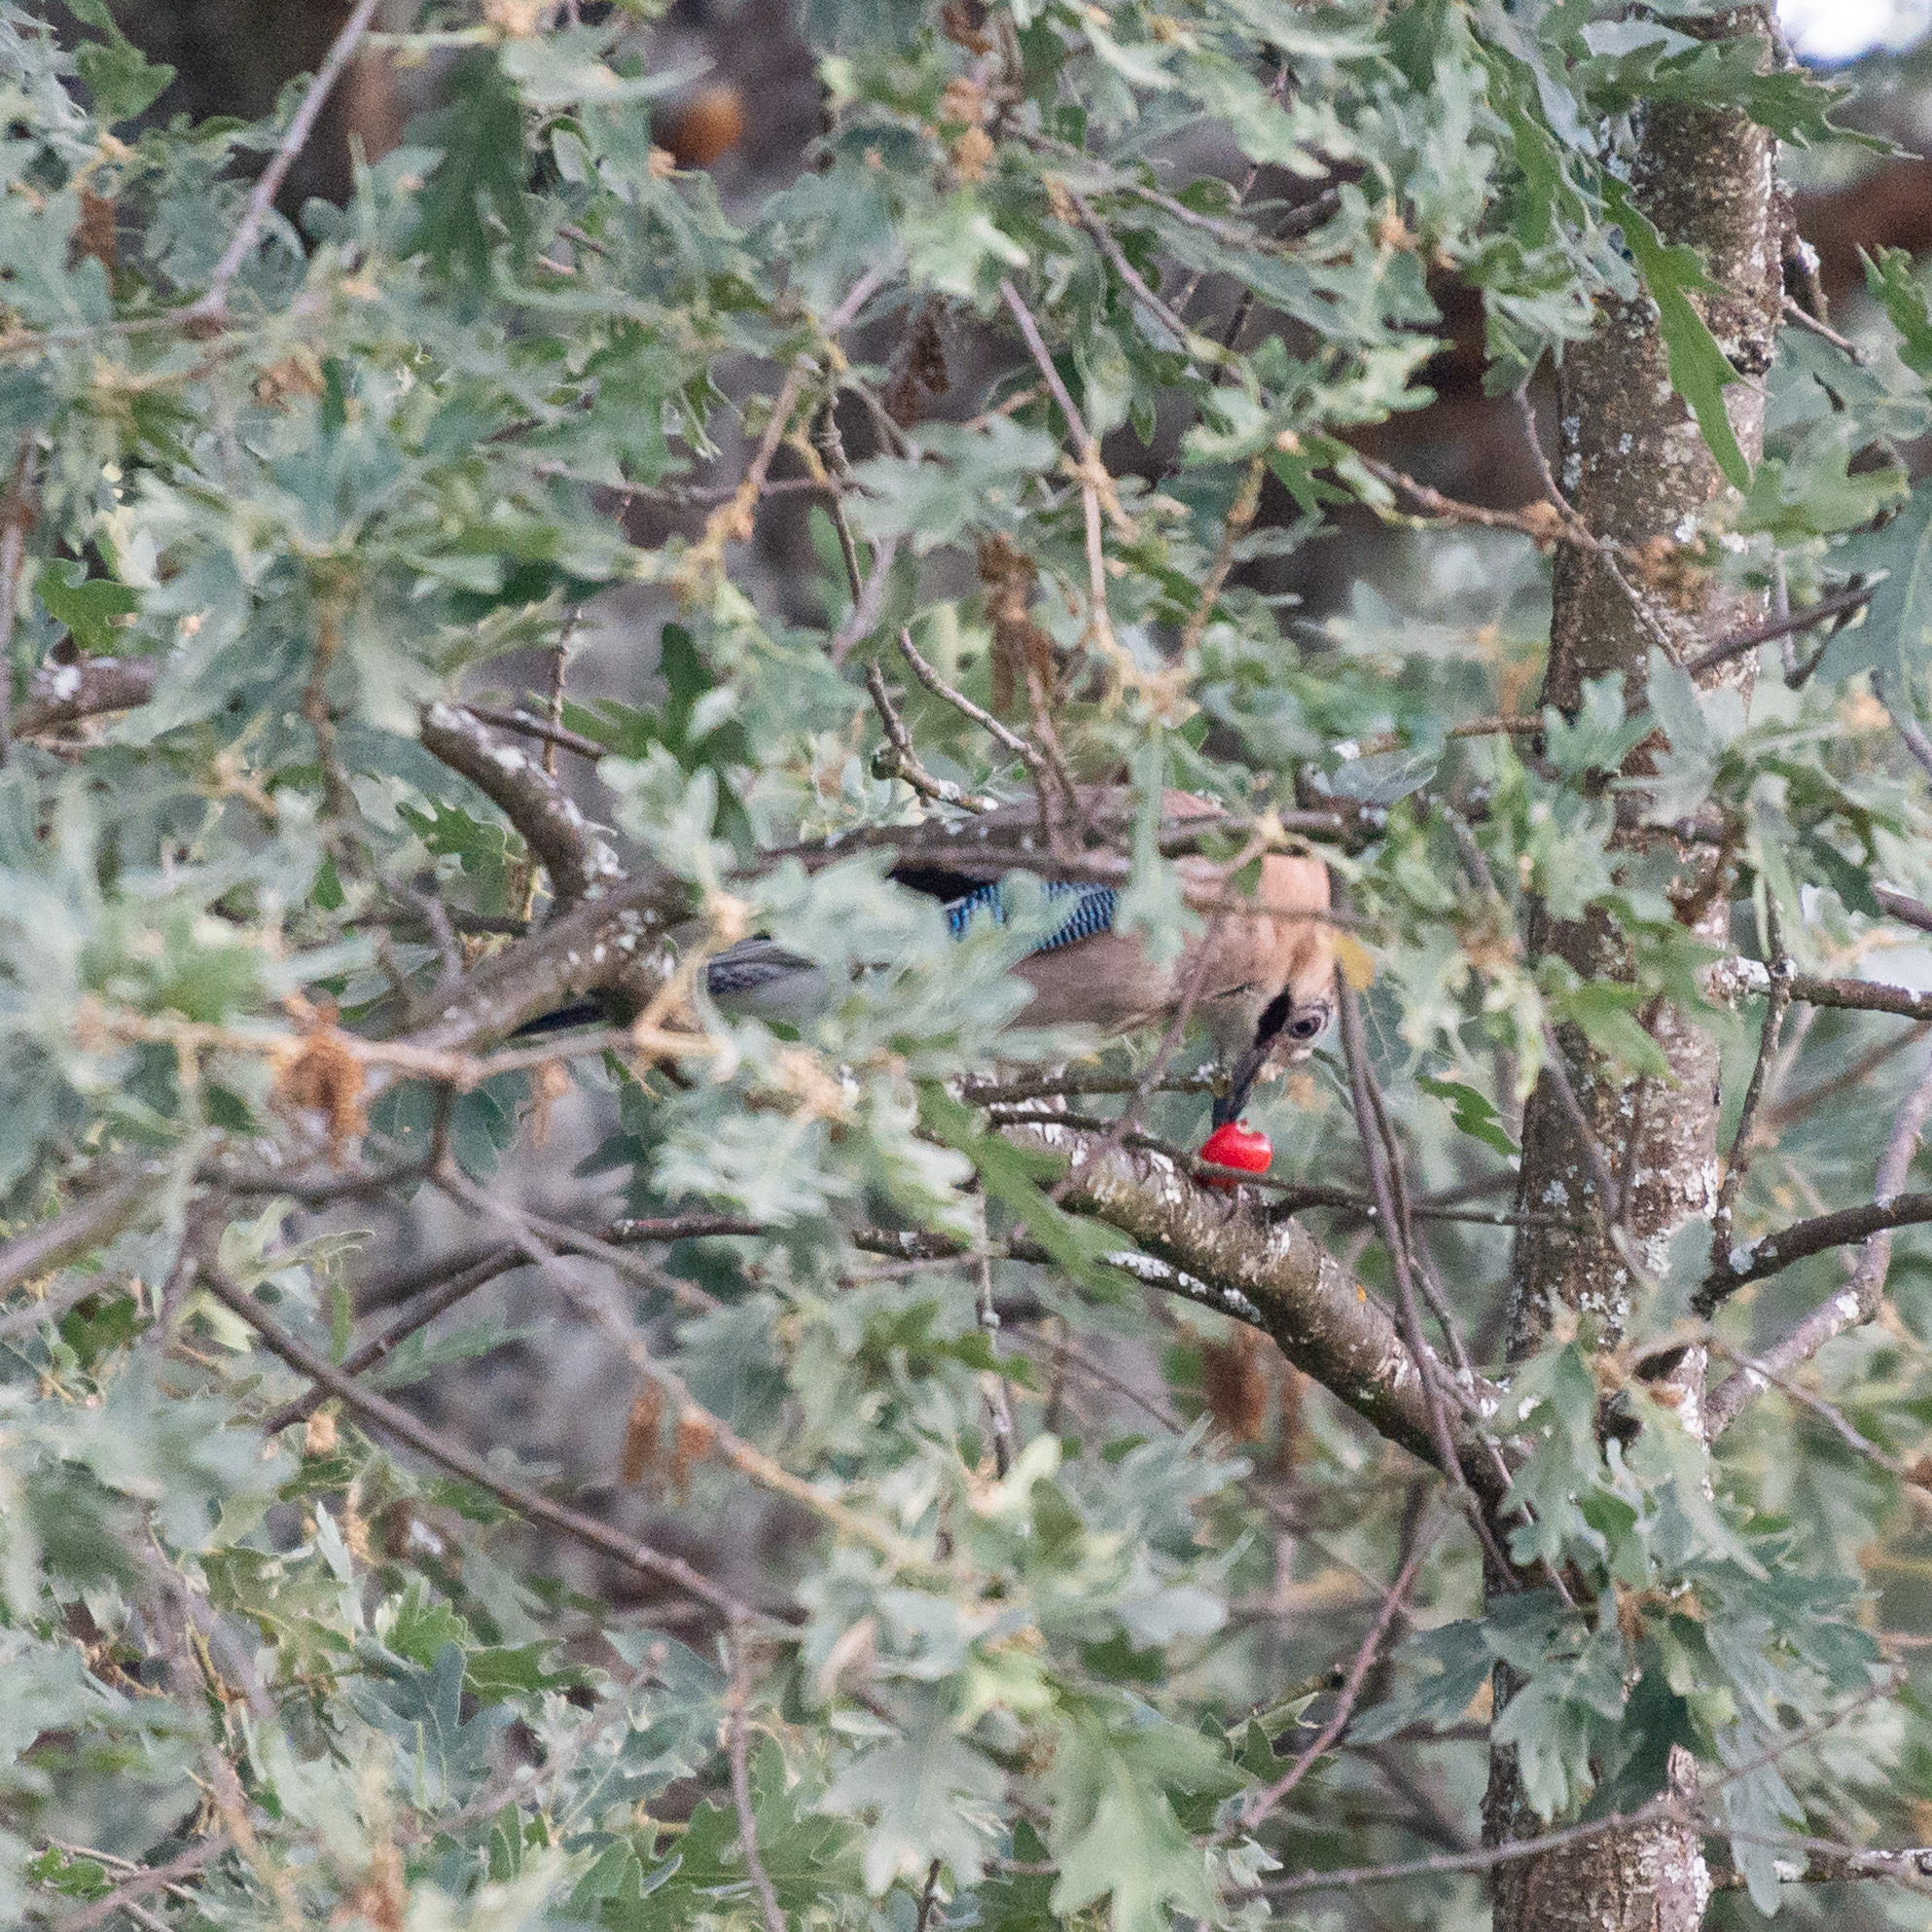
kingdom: Animalia
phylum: Chordata
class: Aves
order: Passeriformes
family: Corvidae
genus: Garrulus
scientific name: Garrulus glandarius
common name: Eurasian jay
